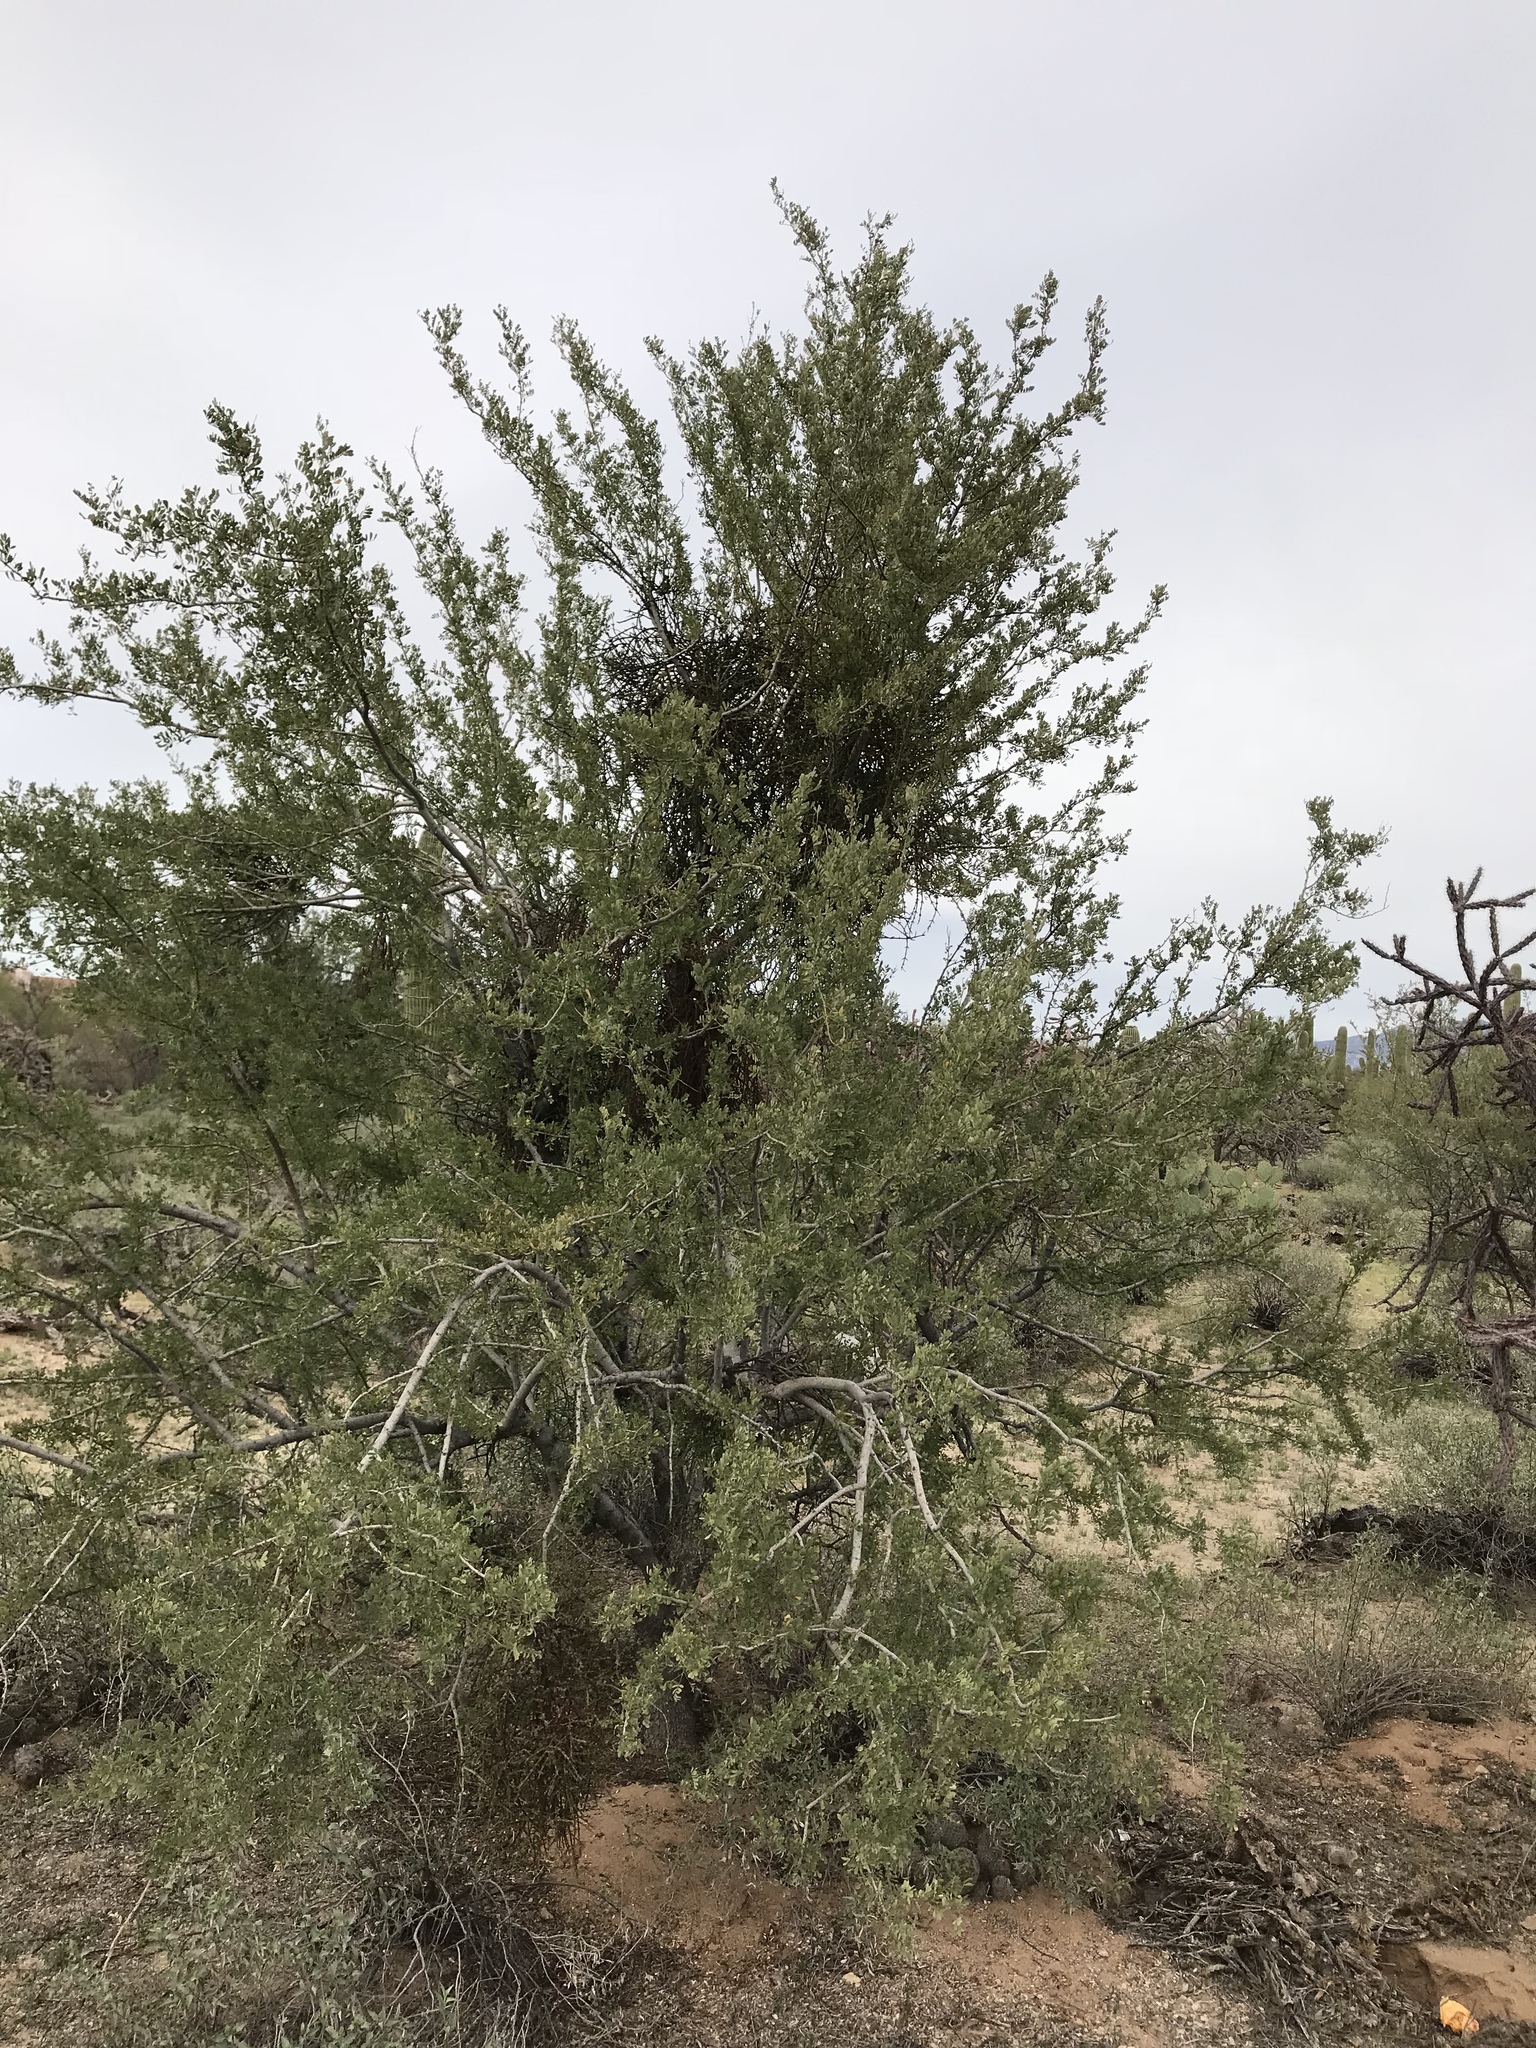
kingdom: Plantae
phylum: Tracheophyta
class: Magnoliopsida
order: Fabales
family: Fabaceae
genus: Olneya
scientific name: Olneya tesota
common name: Desert ironwood
